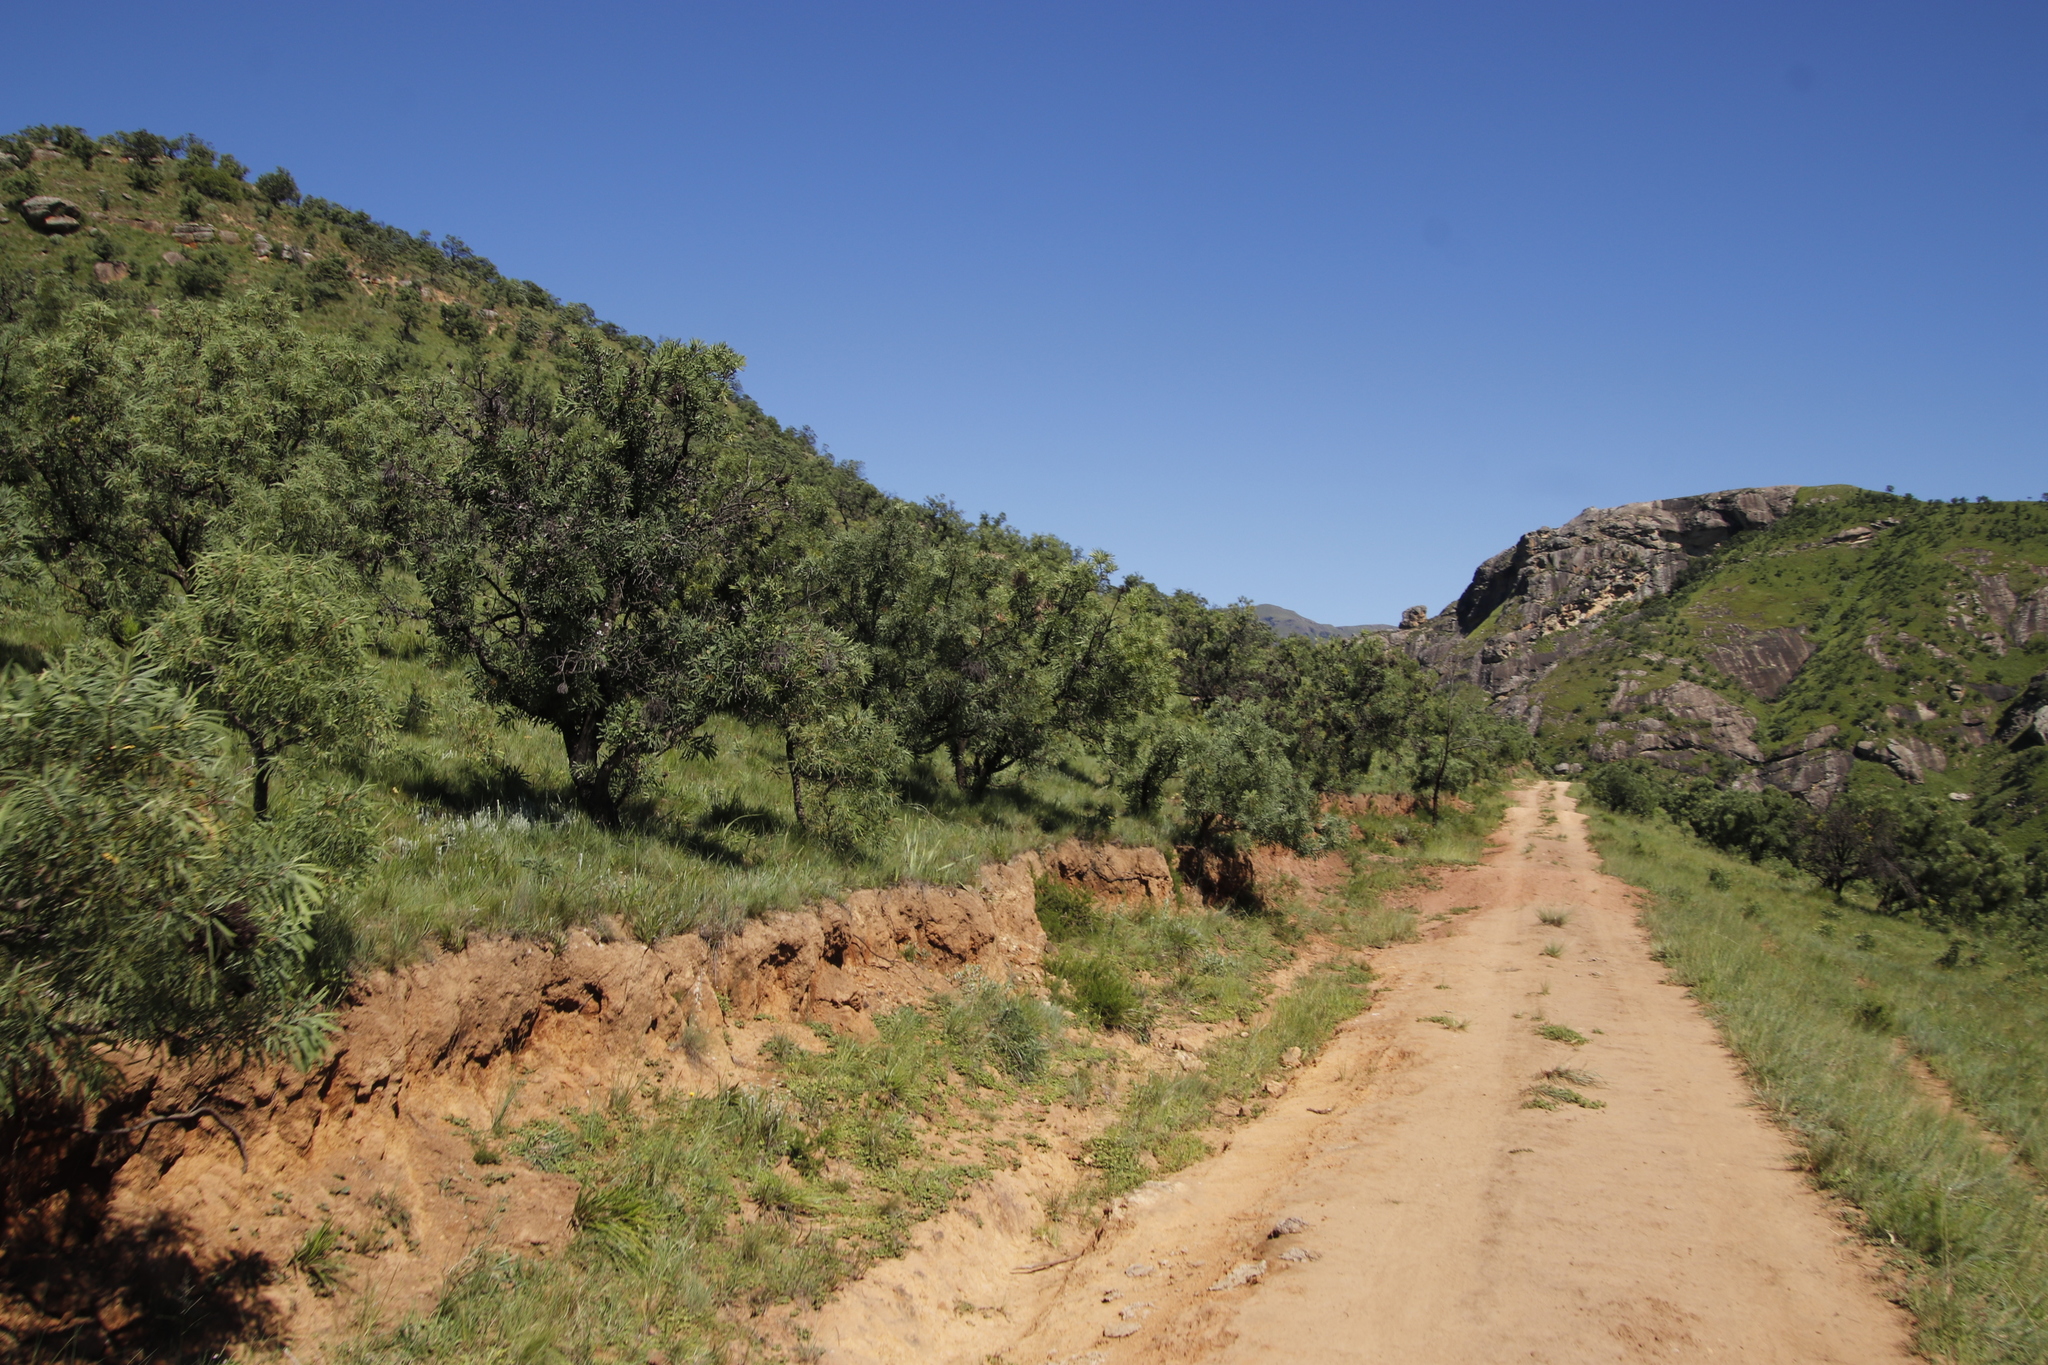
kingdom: Plantae
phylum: Tracheophyta
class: Magnoliopsida
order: Proteales
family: Proteaceae
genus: Protea
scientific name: Protea caffra
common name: Common sugarbush
